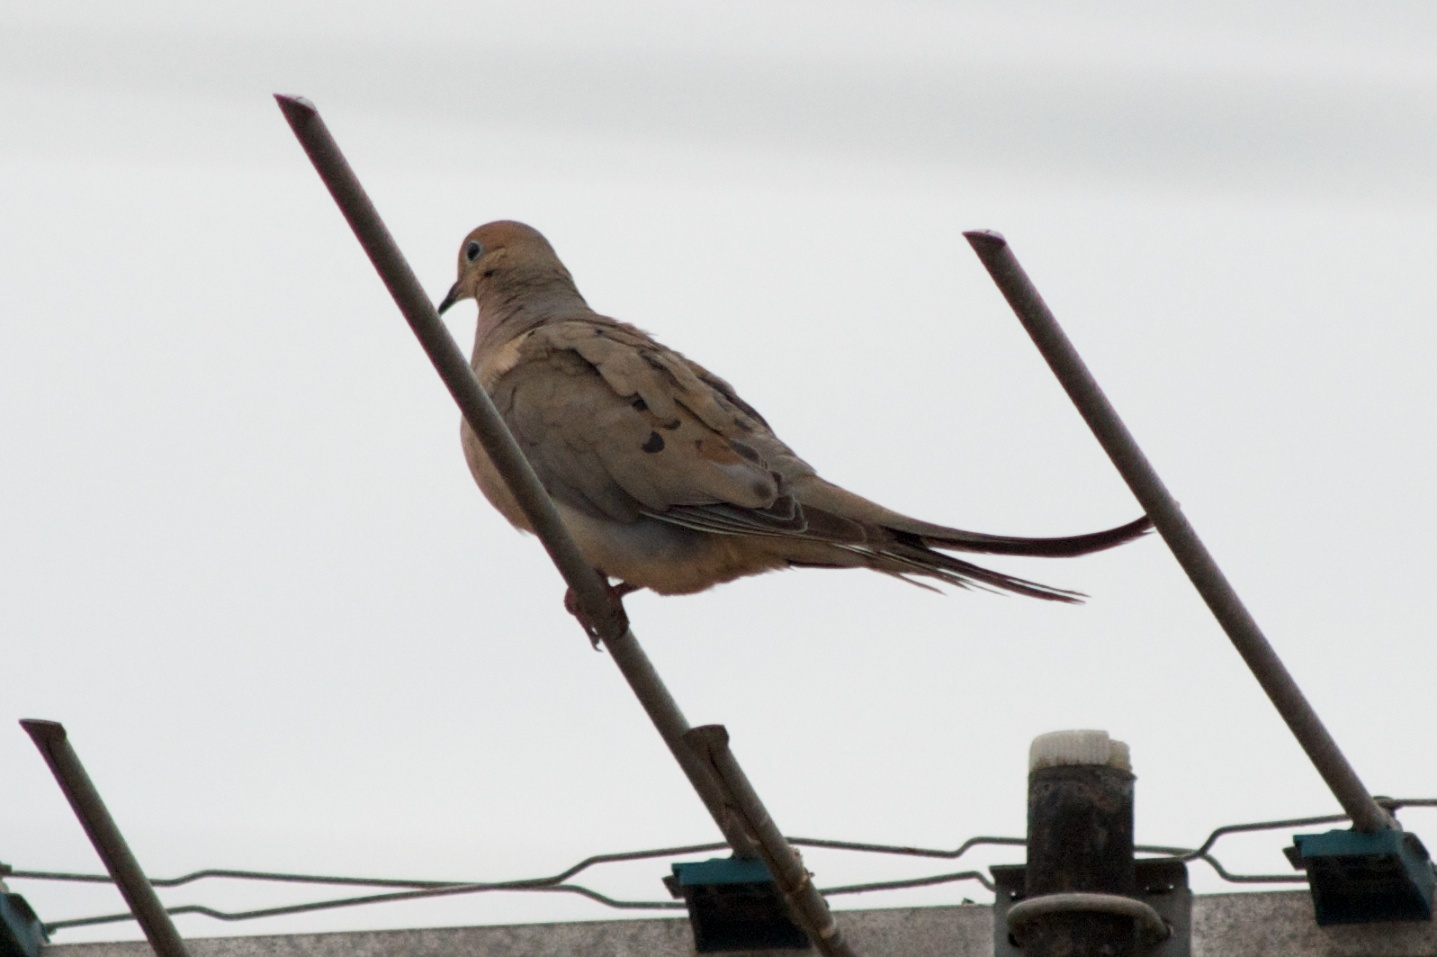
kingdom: Animalia
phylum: Chordata
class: Aves
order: Columbiformes
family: Columbidae
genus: Zenaida
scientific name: Zenaida macroura
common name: Mourning dove
